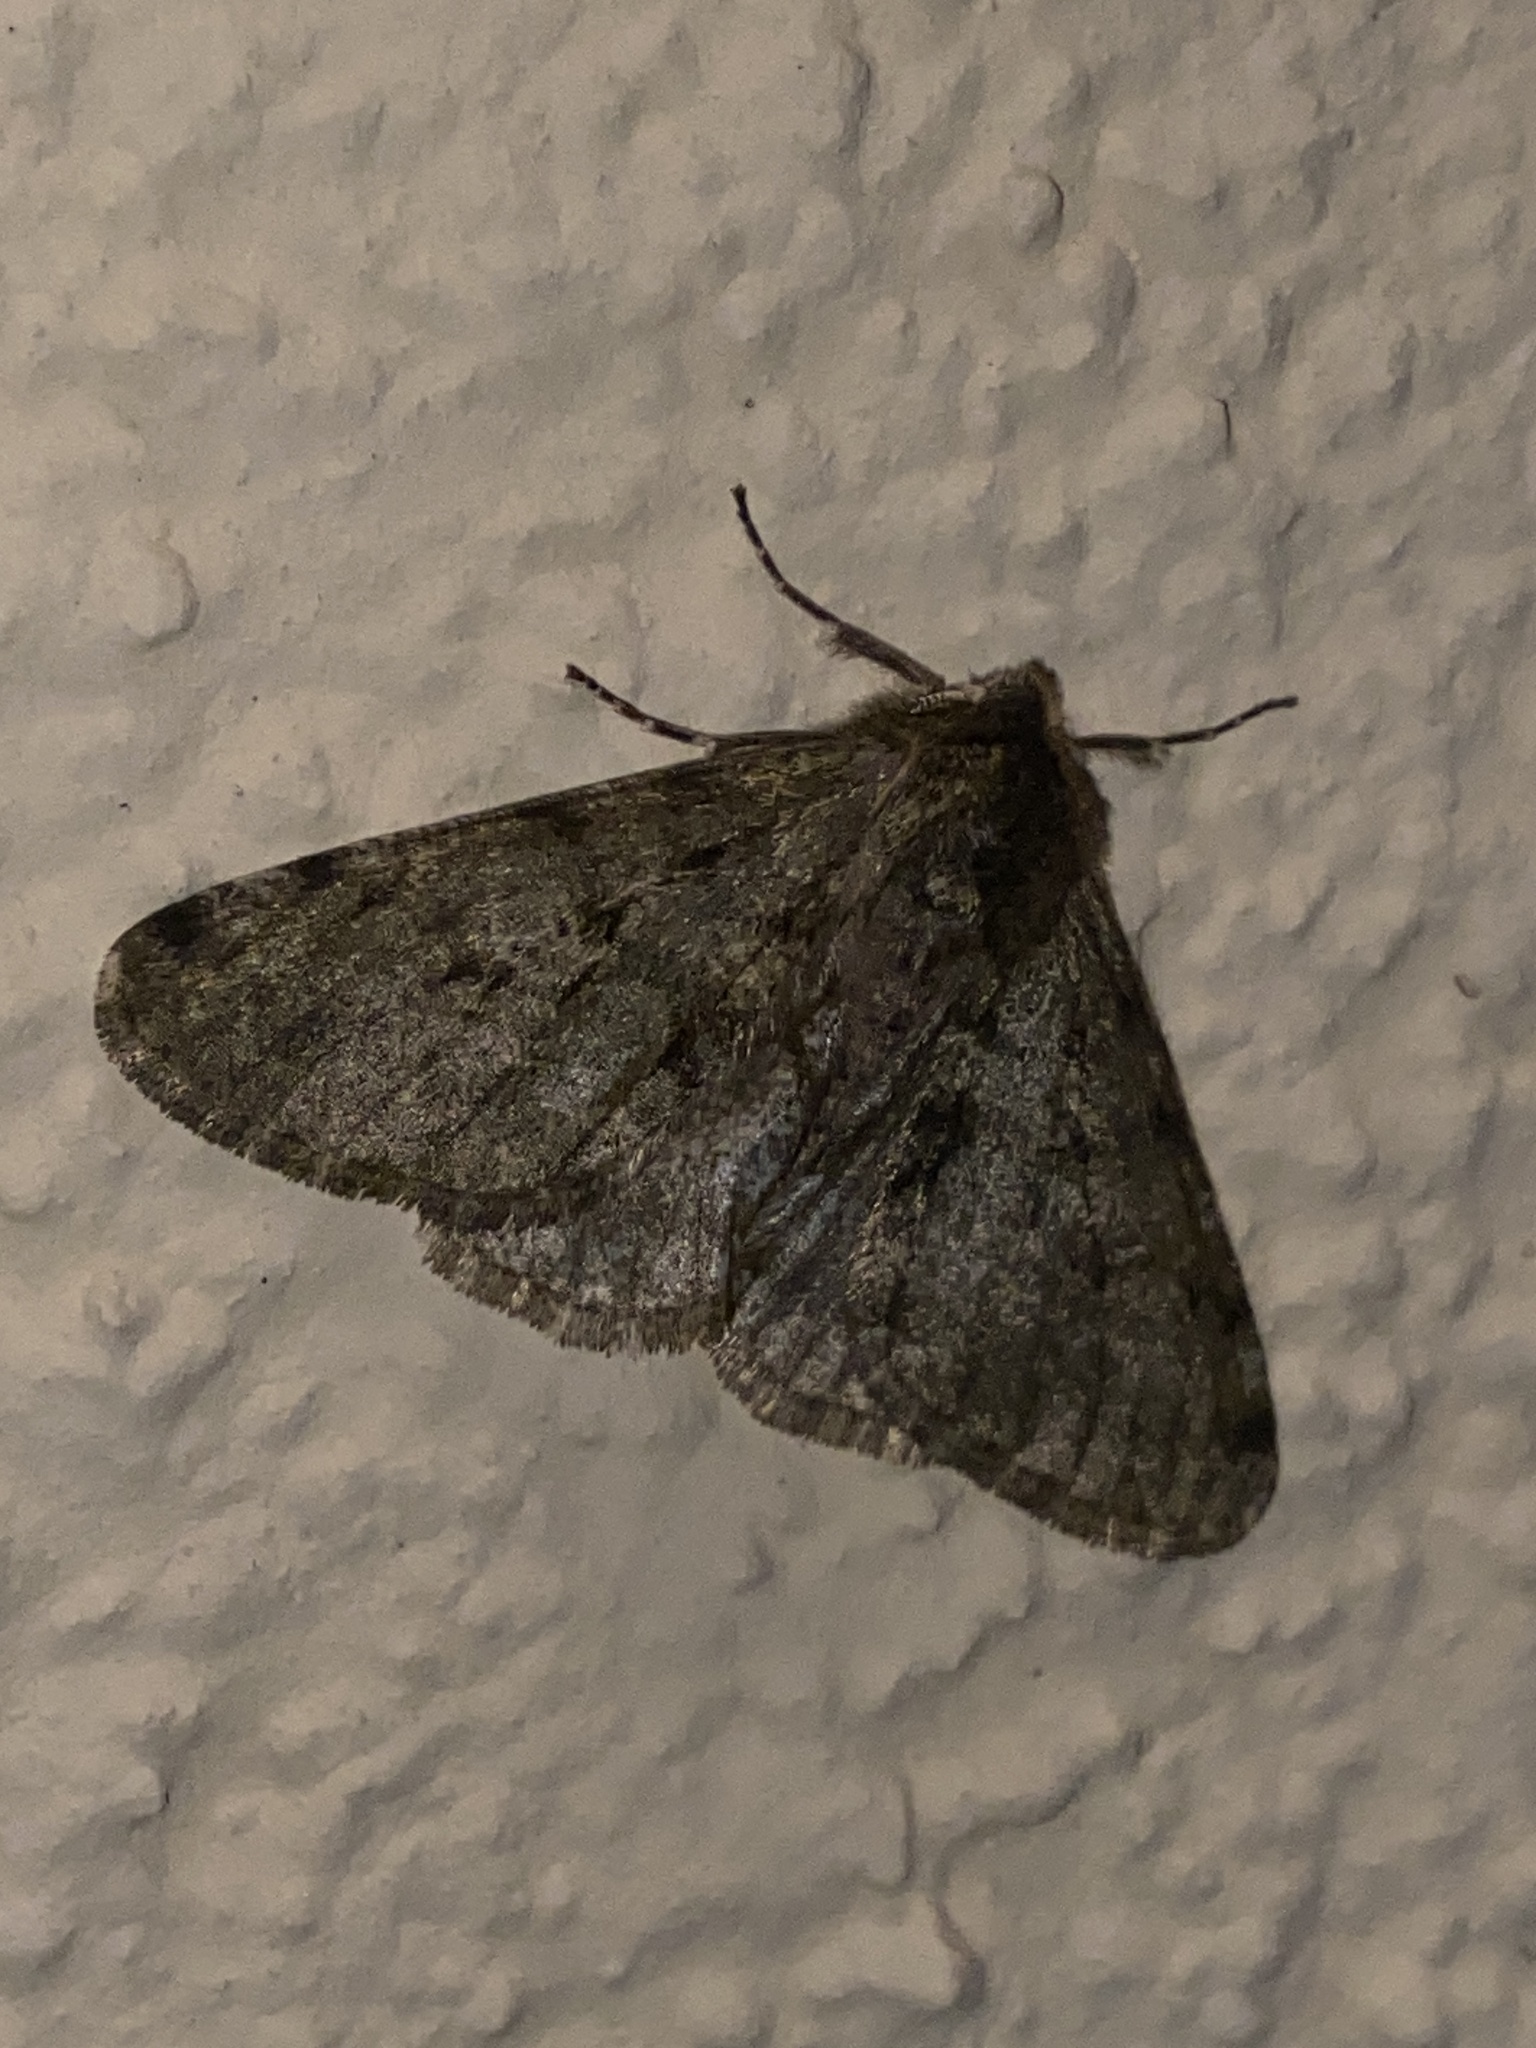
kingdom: Animalia
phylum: Arthropoda
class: Insecta
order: Lepidoptera
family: Geometridae
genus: Phigalia
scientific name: Phigalia pilosaria
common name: Pale brindled beauty
